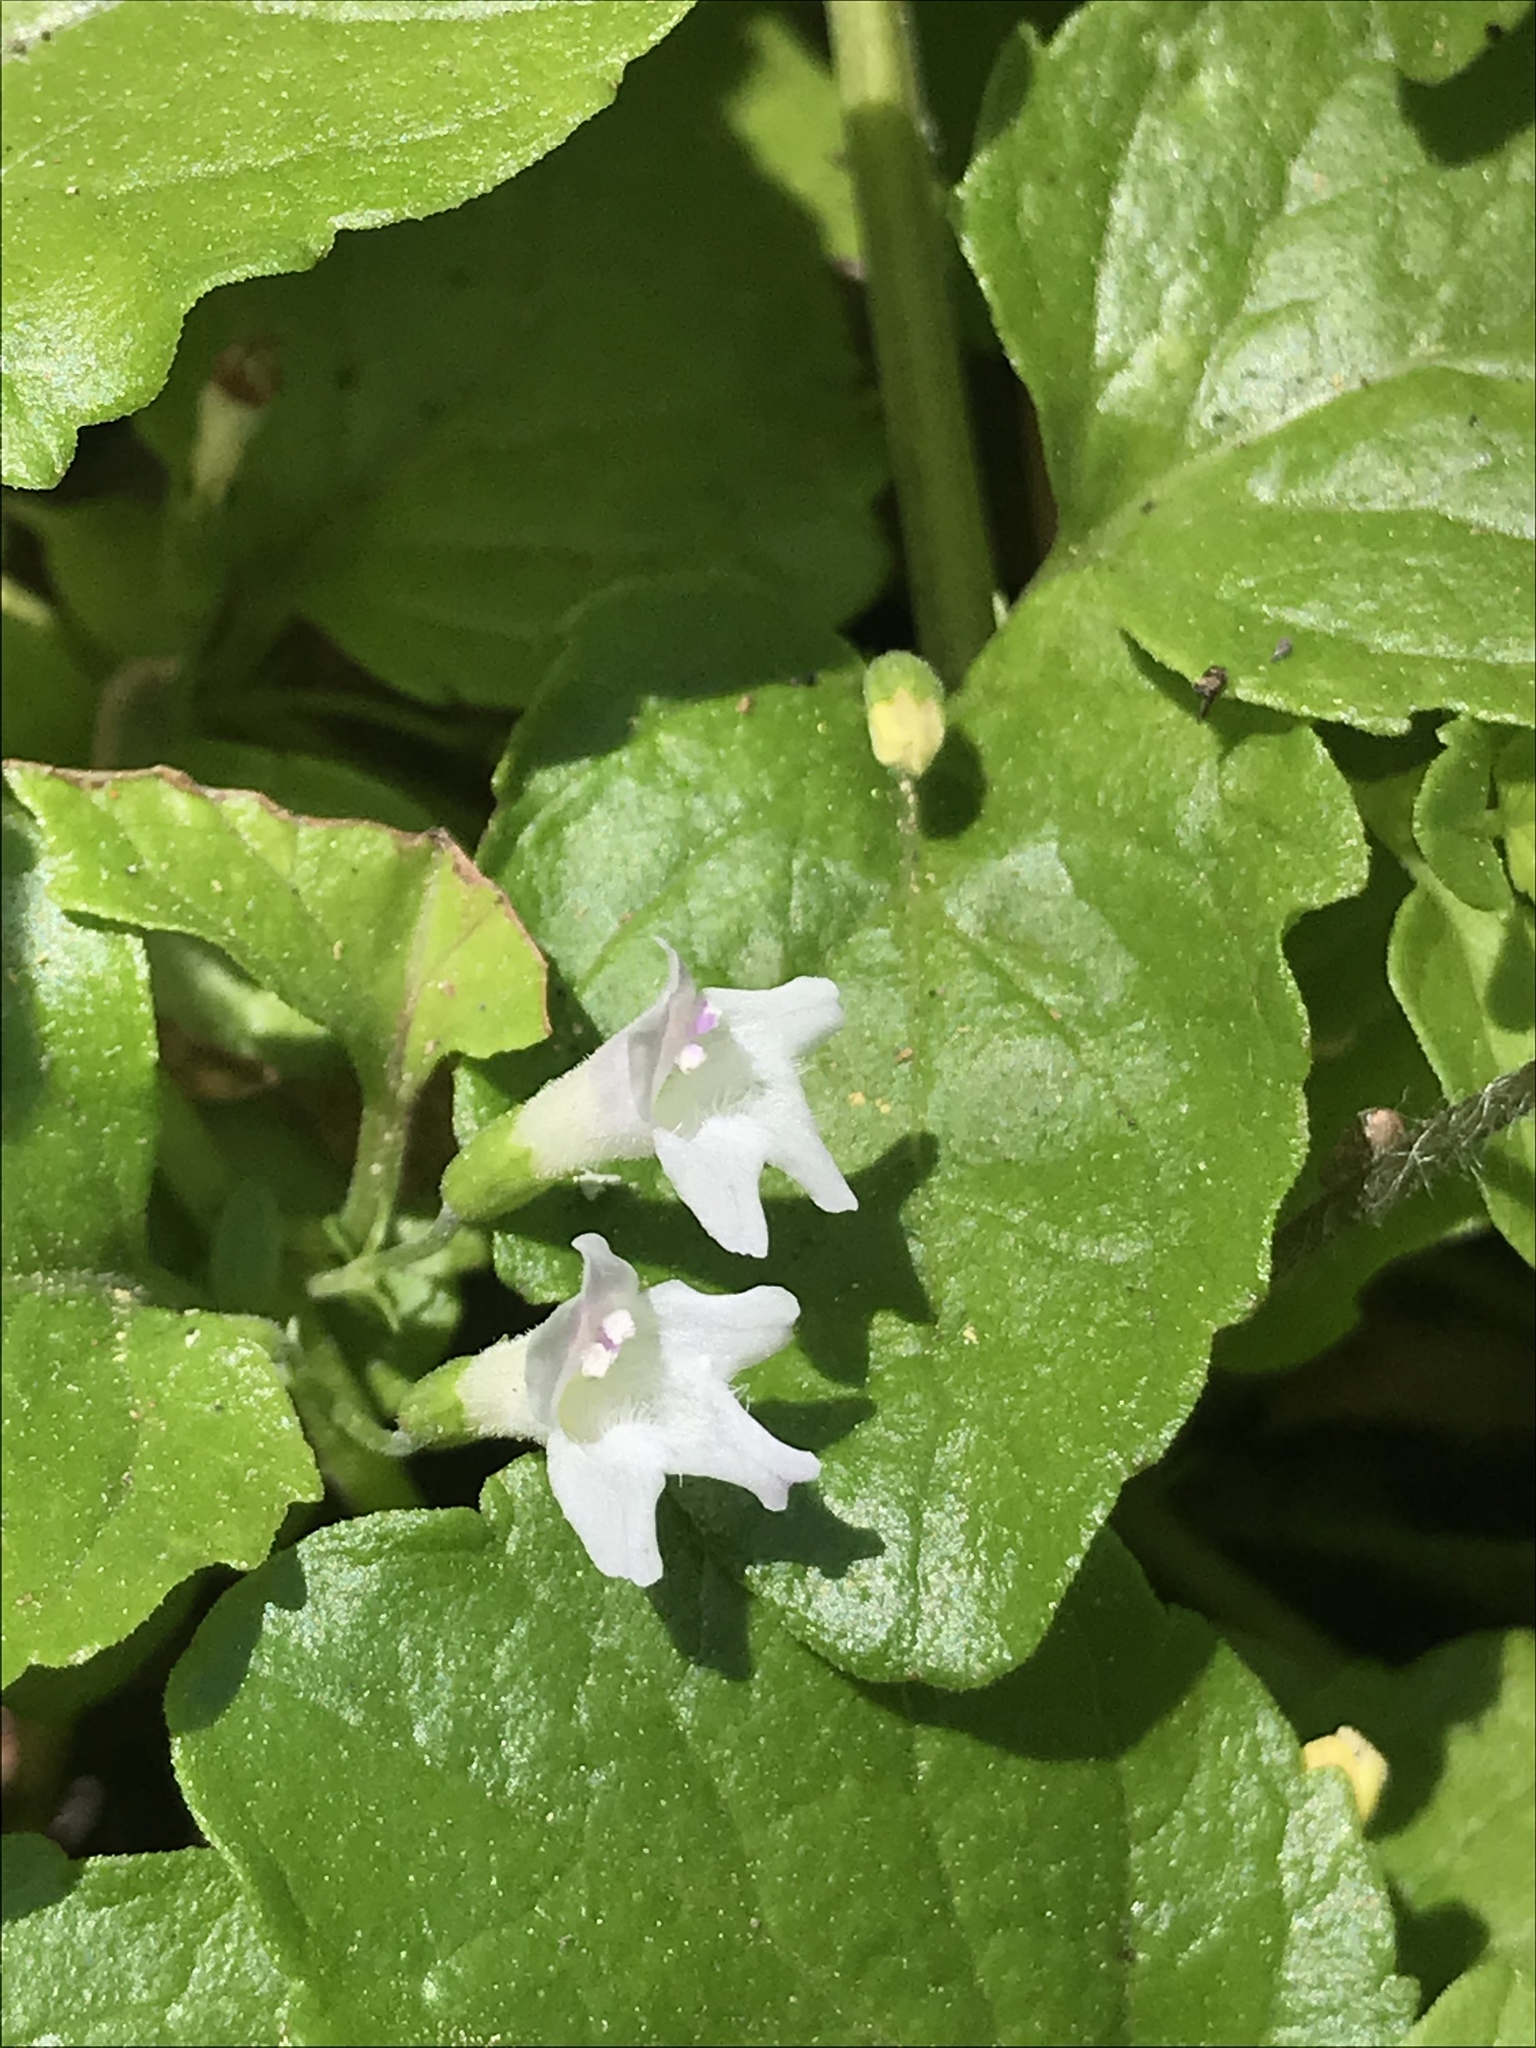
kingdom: Plantae
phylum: Tracheophyta
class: Magnoliopsida
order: Lamiales
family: Lamiaceae
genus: Micromeria
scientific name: Micromeria douglasii
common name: Yerba buena
